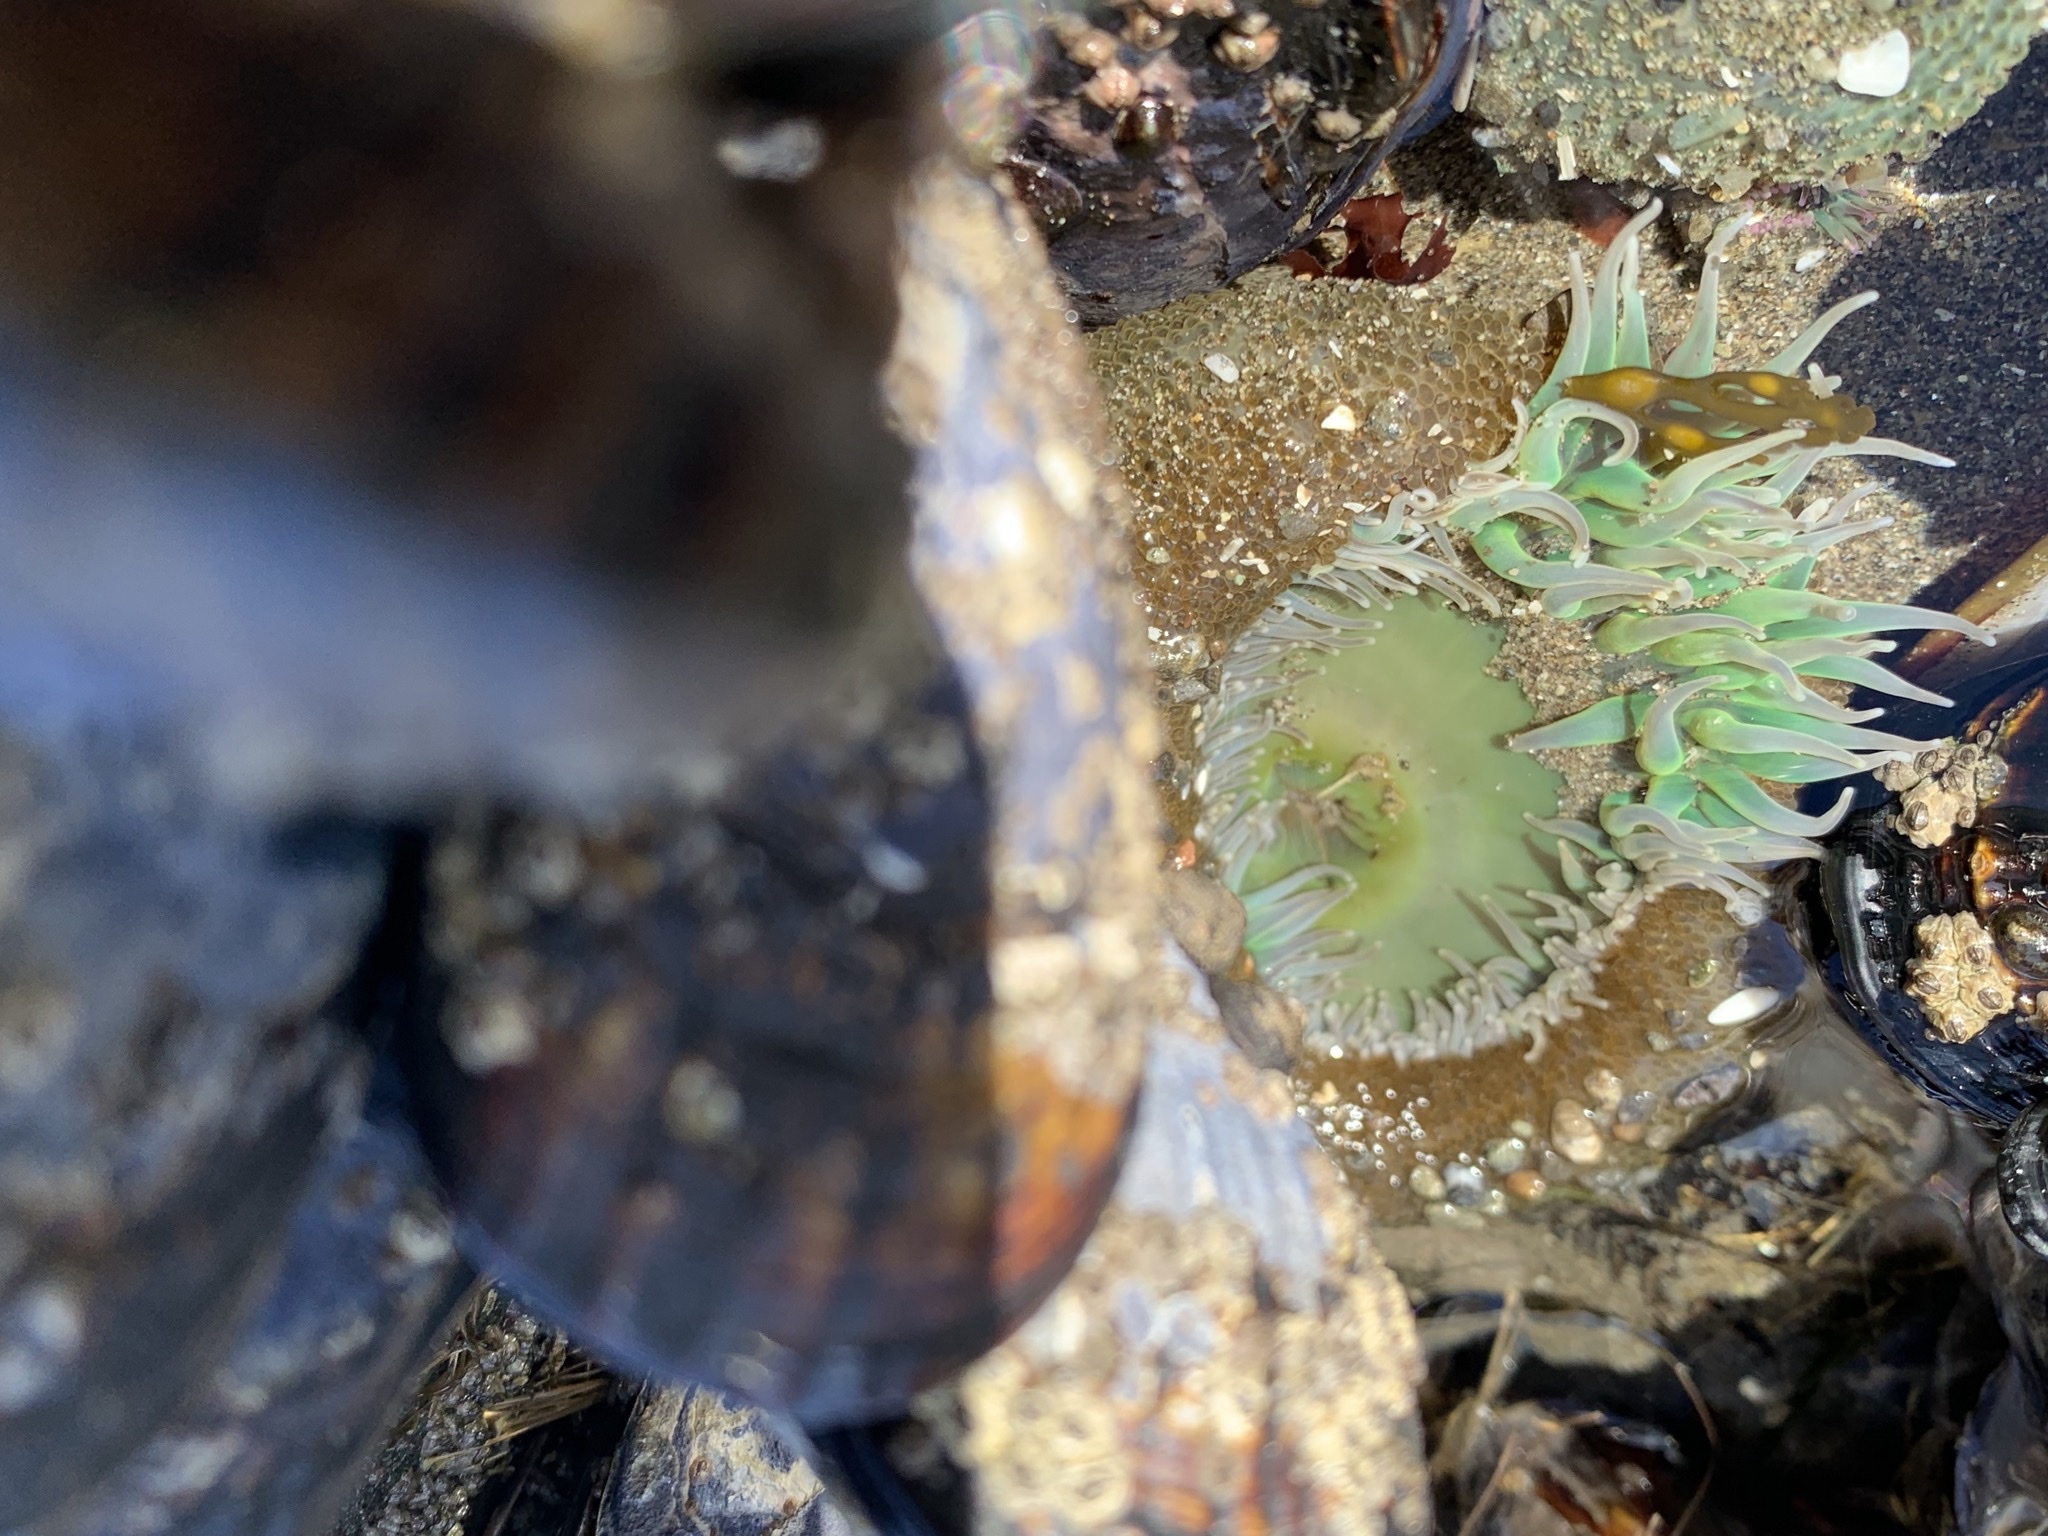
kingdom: Animalia
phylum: Cnidaria
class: Anthozoa
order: Actiniaria
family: Actiniidae
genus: Anthopleura
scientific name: Anthopleura xanthogrammica
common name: Giant green anemone
